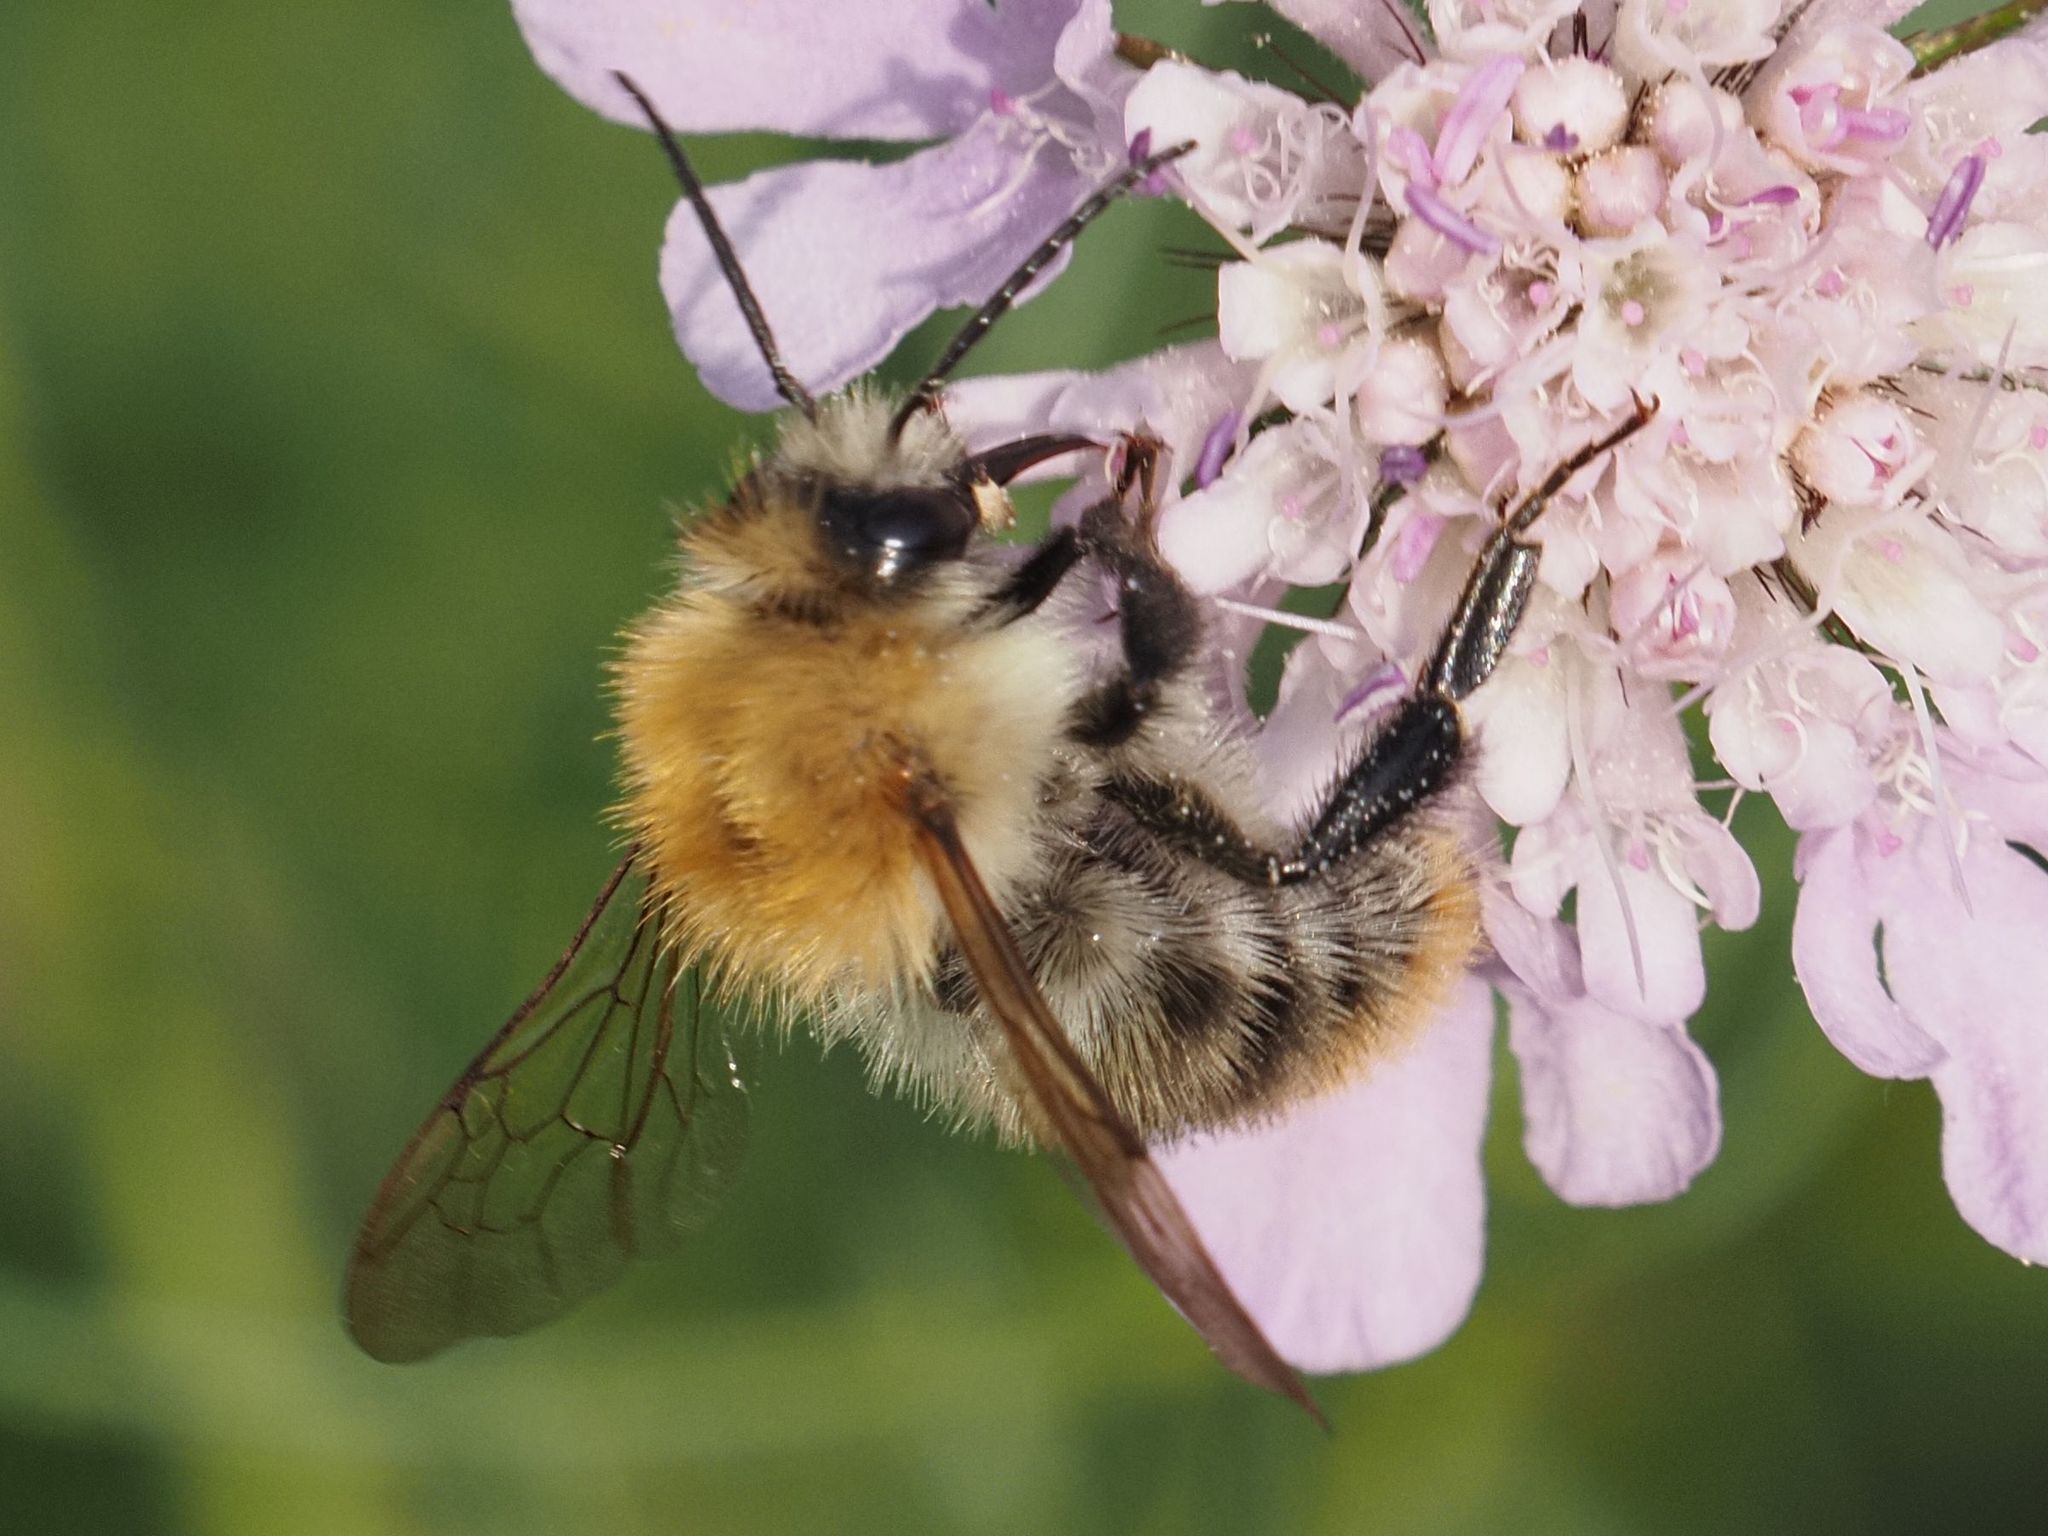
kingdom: Animalia
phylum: Arthropoda
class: Insecta
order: Hymenoptera
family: Apidae
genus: Bombus
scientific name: Bombus pascuorum
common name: Common carder bee
